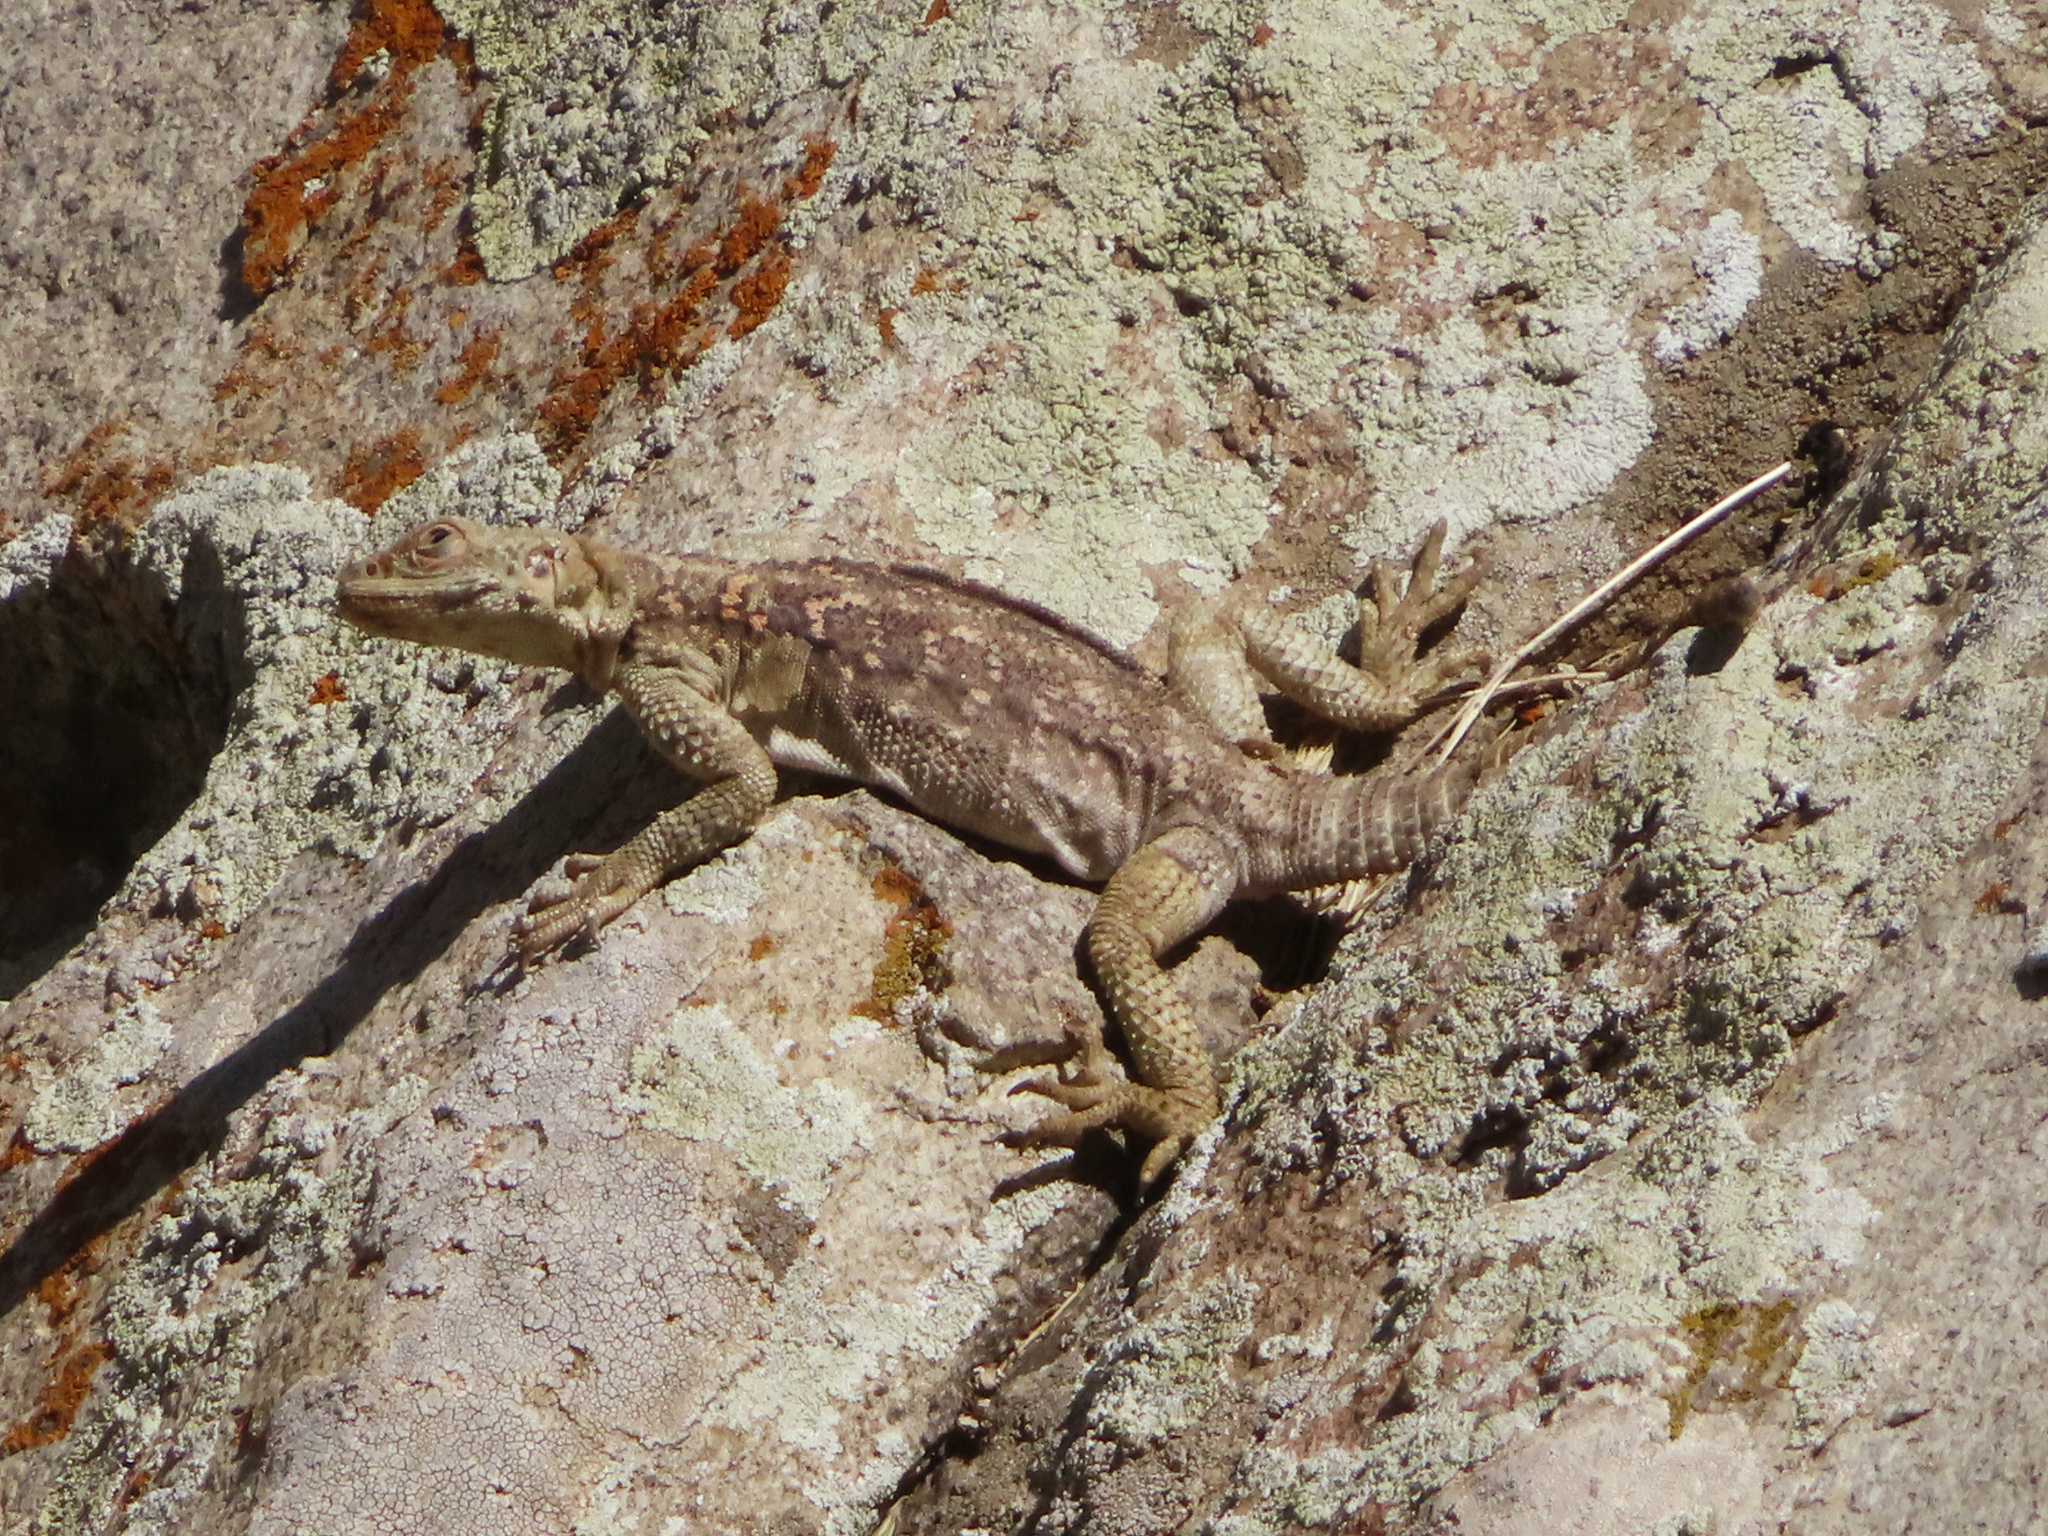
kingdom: Animalia
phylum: Chordata
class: Squamata
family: Agamidae
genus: Paralaudakia
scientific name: Paralaudakia caucasia
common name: Caucasian agama
